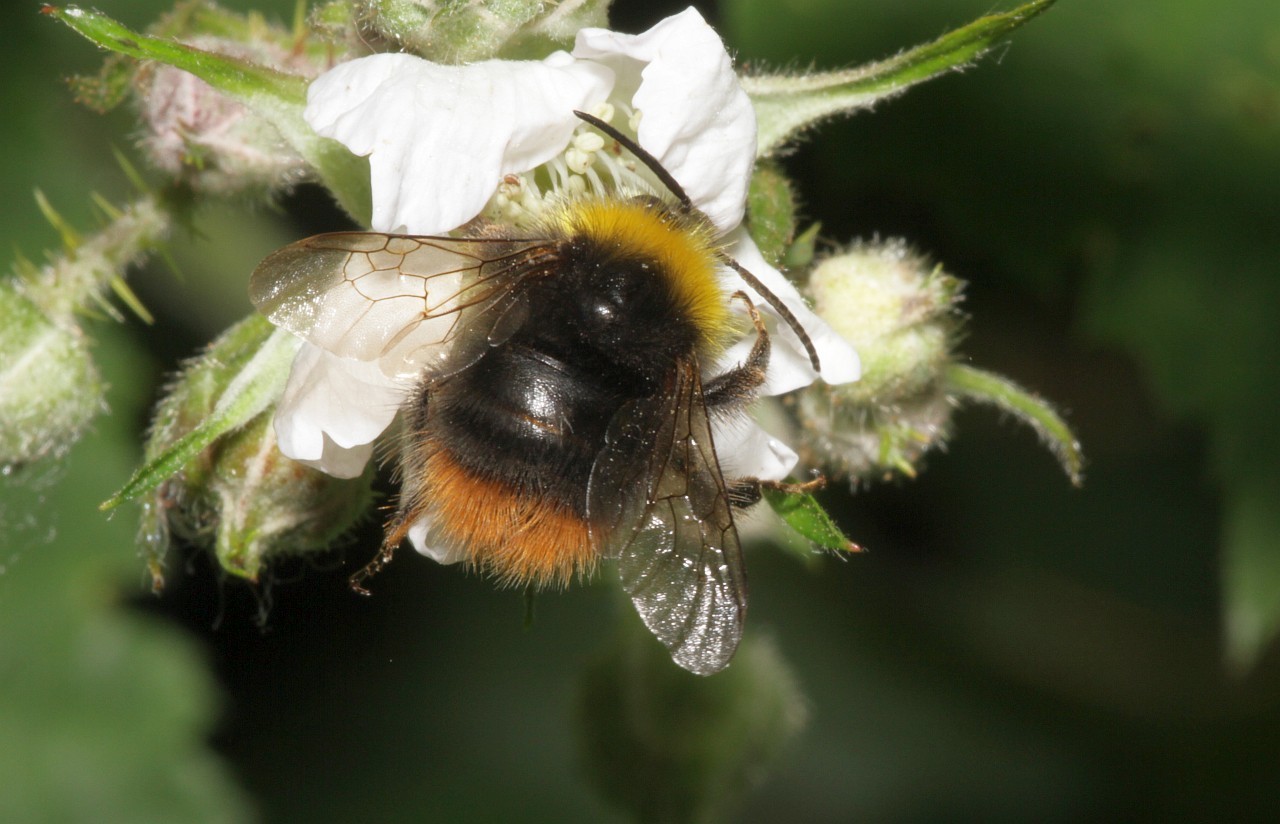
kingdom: Animalia
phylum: Arthropoda
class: Insecta
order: Hymenoptera
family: Apidae
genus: Bombus
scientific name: Bombus pratorum
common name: Early humble-bee
